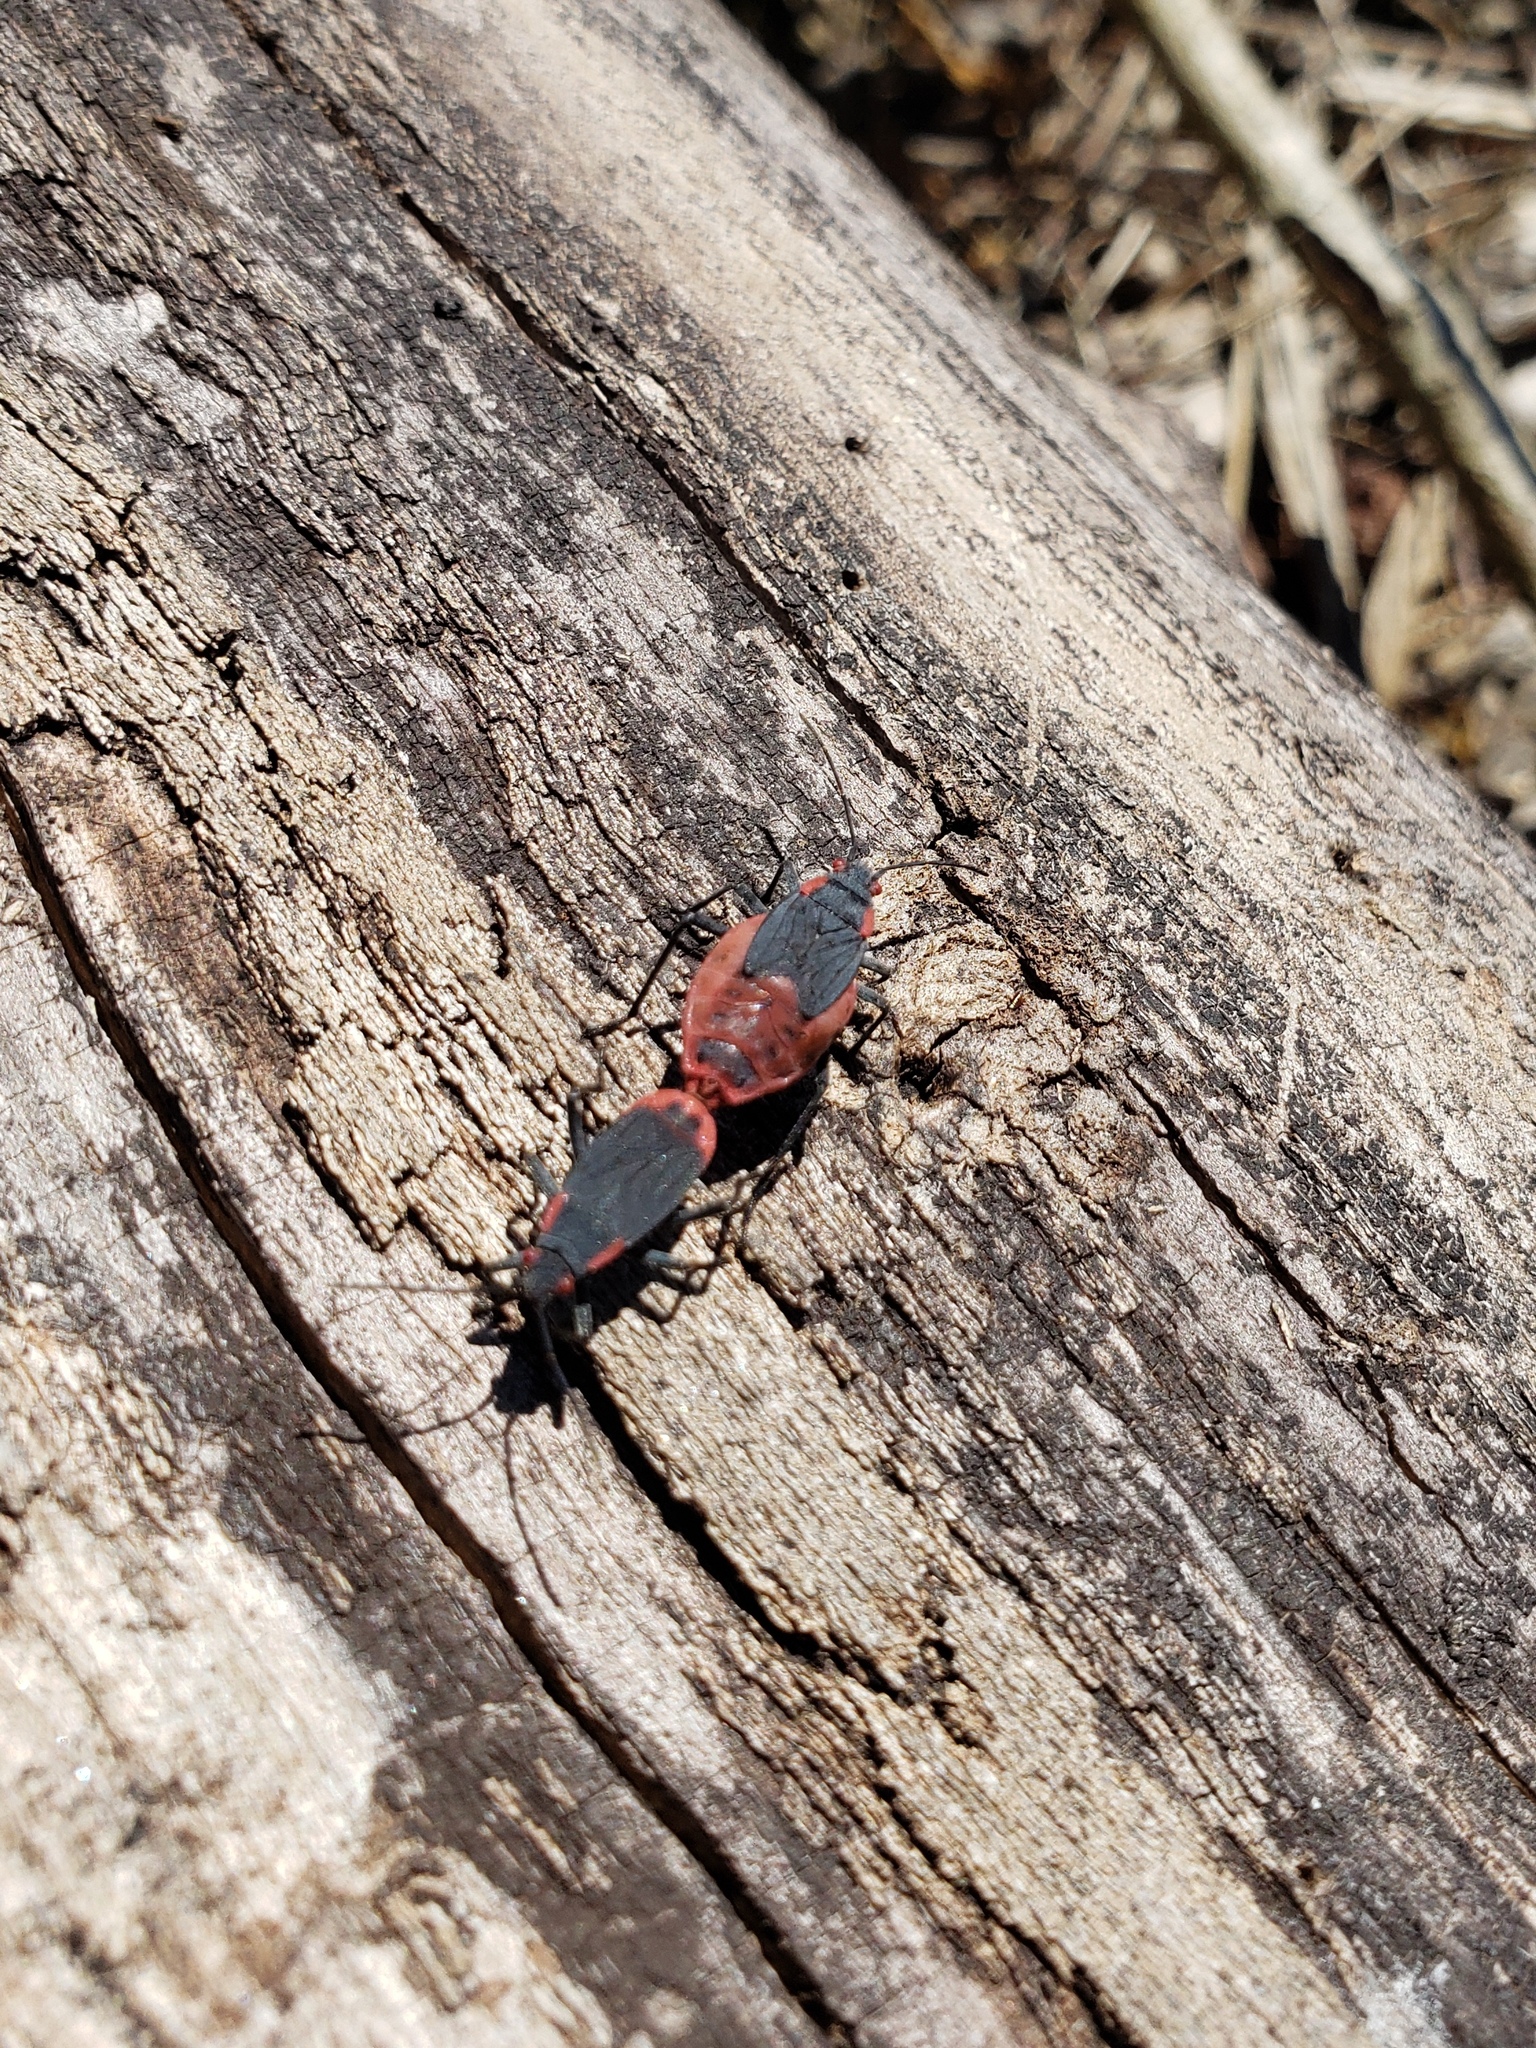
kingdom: Animalia
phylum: Arthropoda
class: Insecta
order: Hemiptera
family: Rhopalidae
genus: Jadera
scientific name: Jadera haematoloma
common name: Red-shouldered bug
